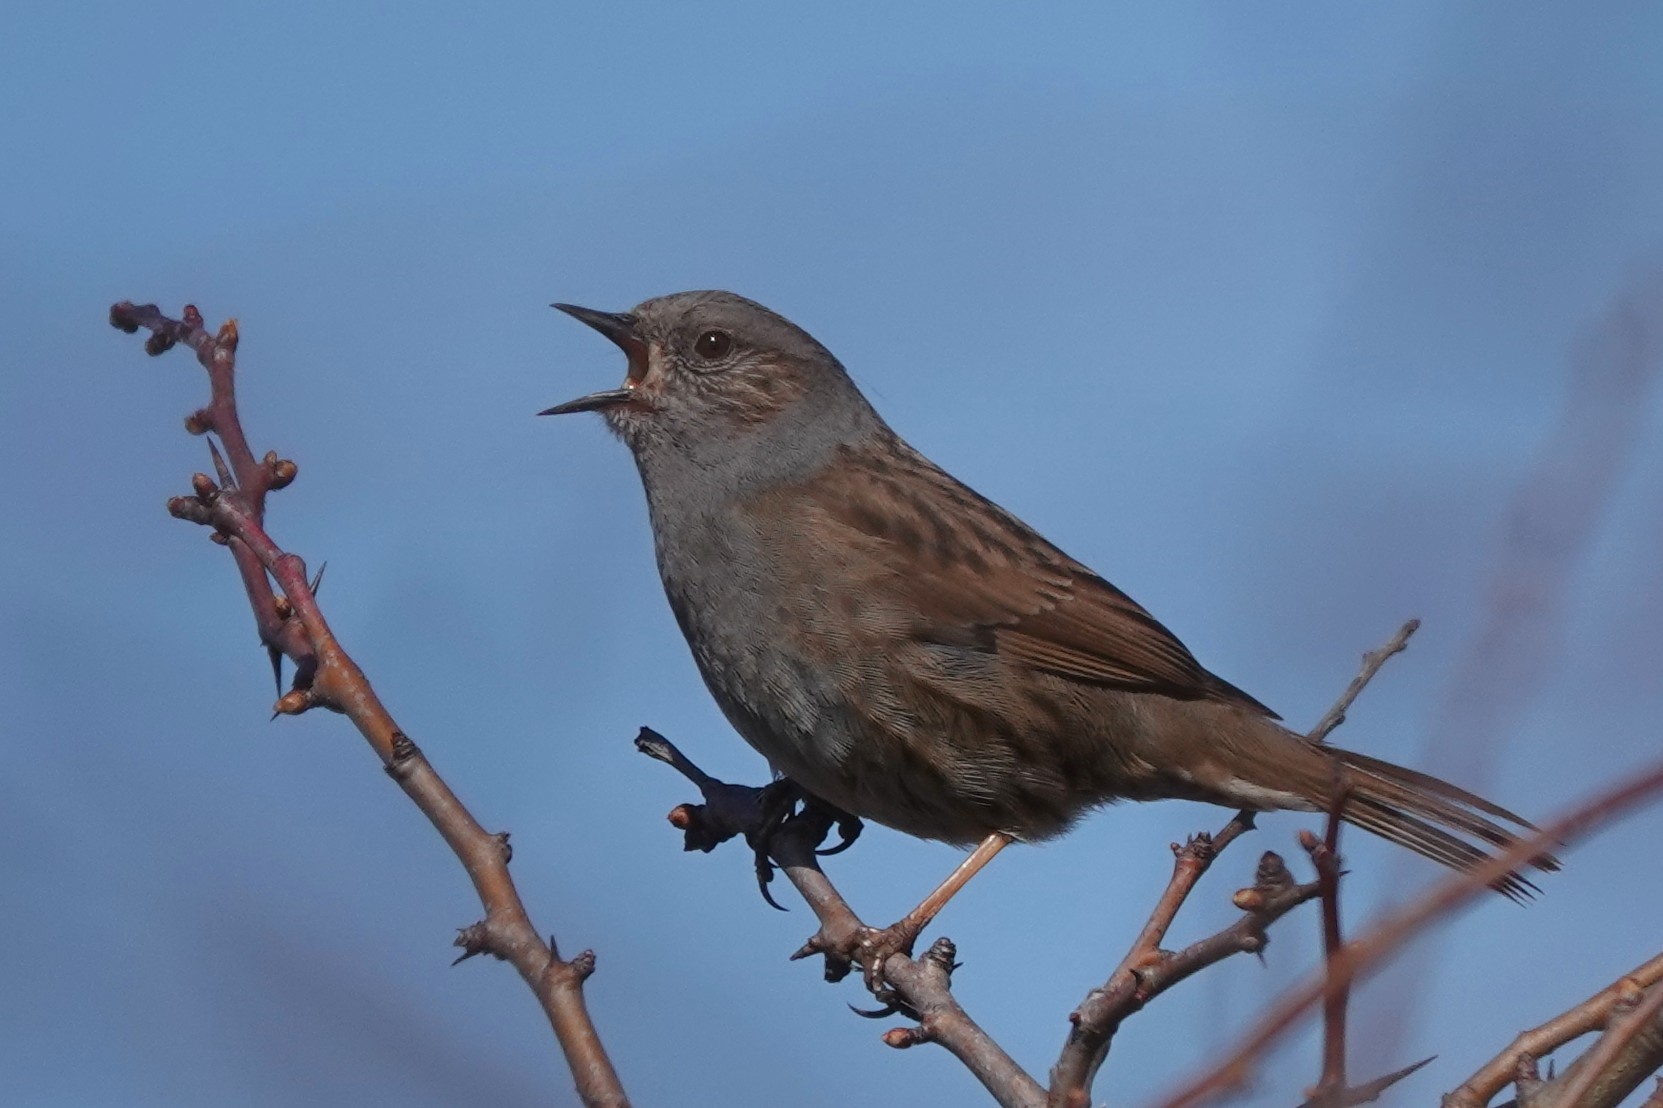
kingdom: Animalia
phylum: Chordata
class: Aves
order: Passeriformes
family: Prunellidae
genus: Prunella
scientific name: Prunella modularis
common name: Dunnock
